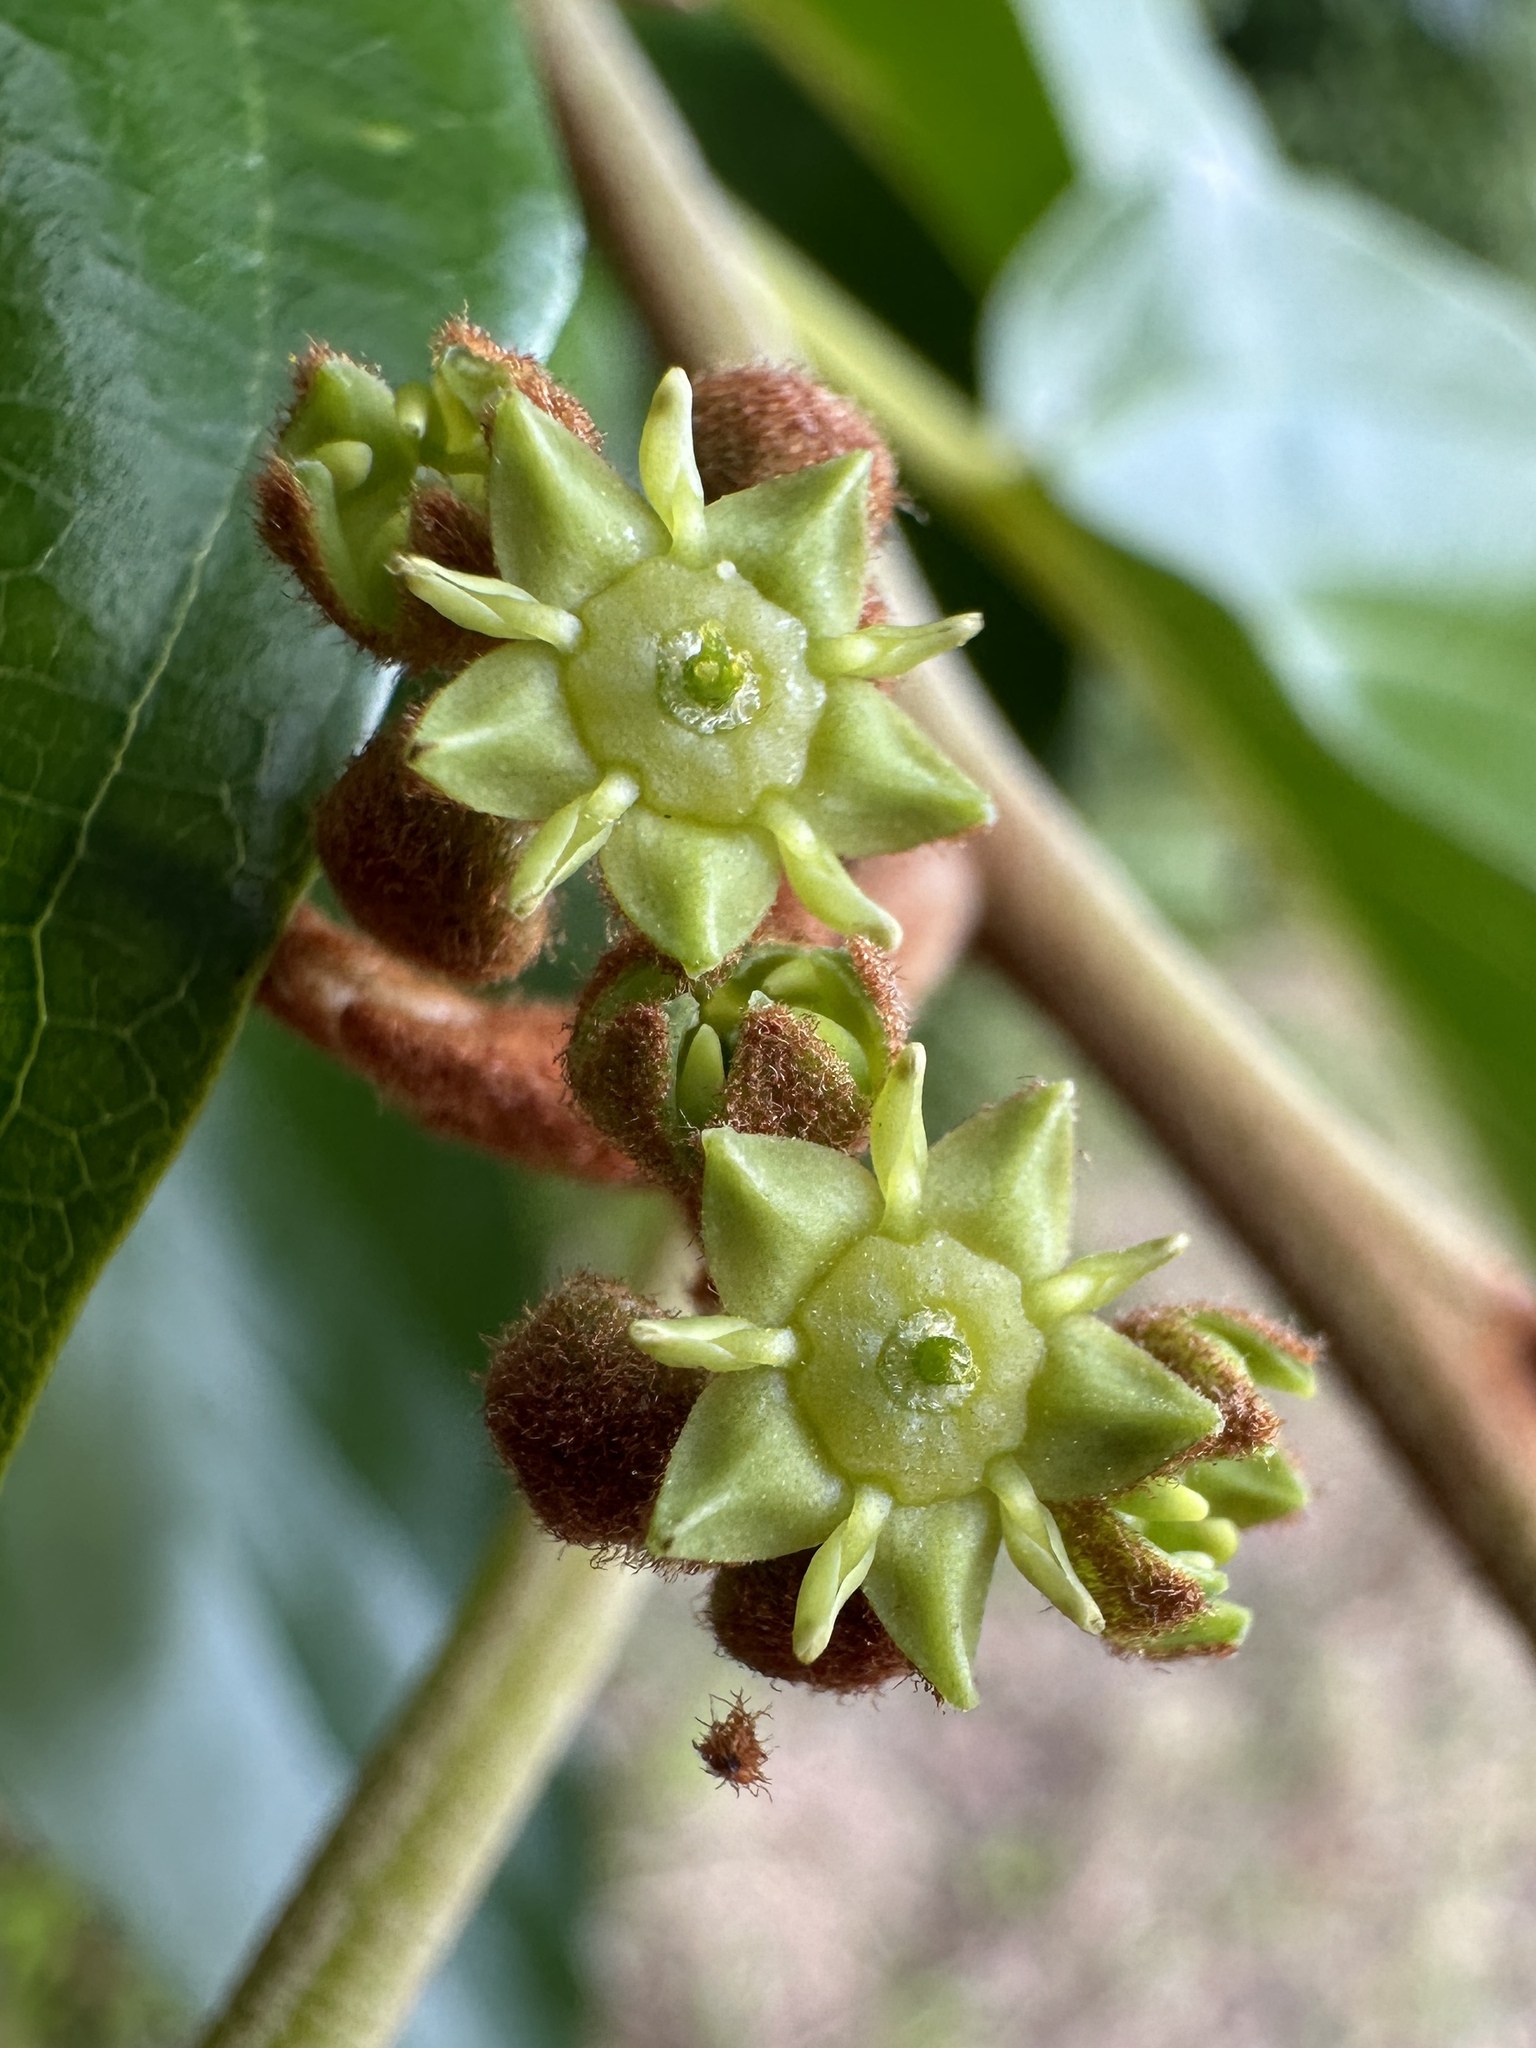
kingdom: Plantae
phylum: Tracheophyta
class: Magnoliopsida
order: Rosales
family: Rhamnaceae
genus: Colubrina
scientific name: Colubrina arborescens
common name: Wild coffee
